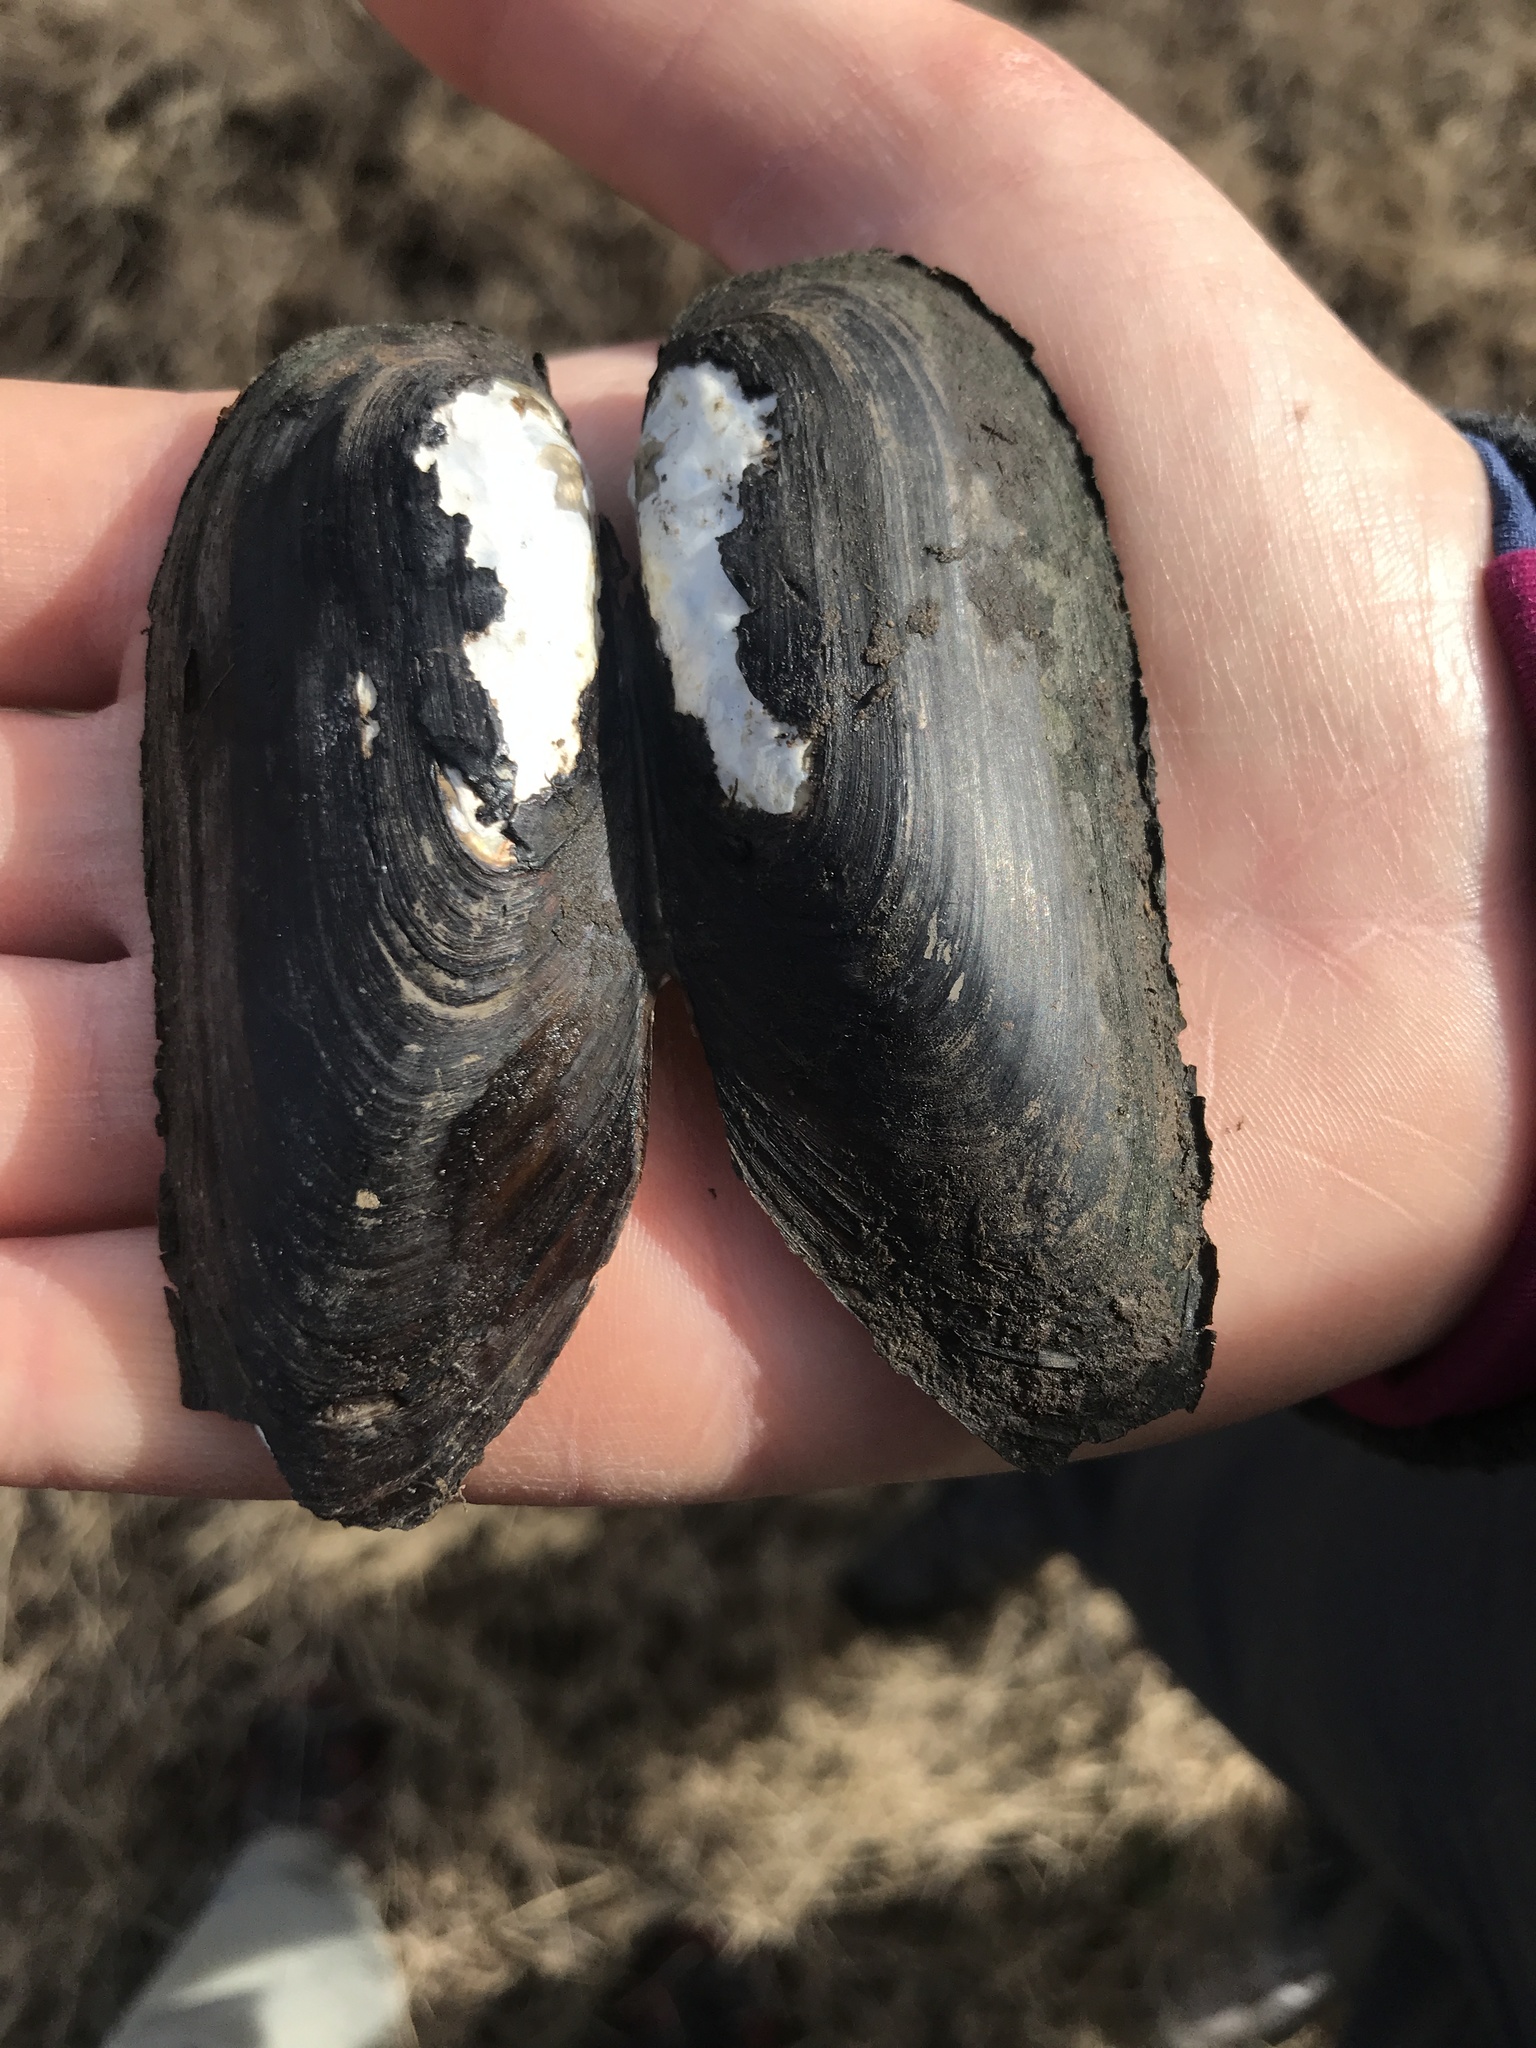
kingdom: Animalia
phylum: Mollusca
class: Bivalvia
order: Unionida
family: Hyriidae
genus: Diplodon
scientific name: Diplodon parallelopipedon
